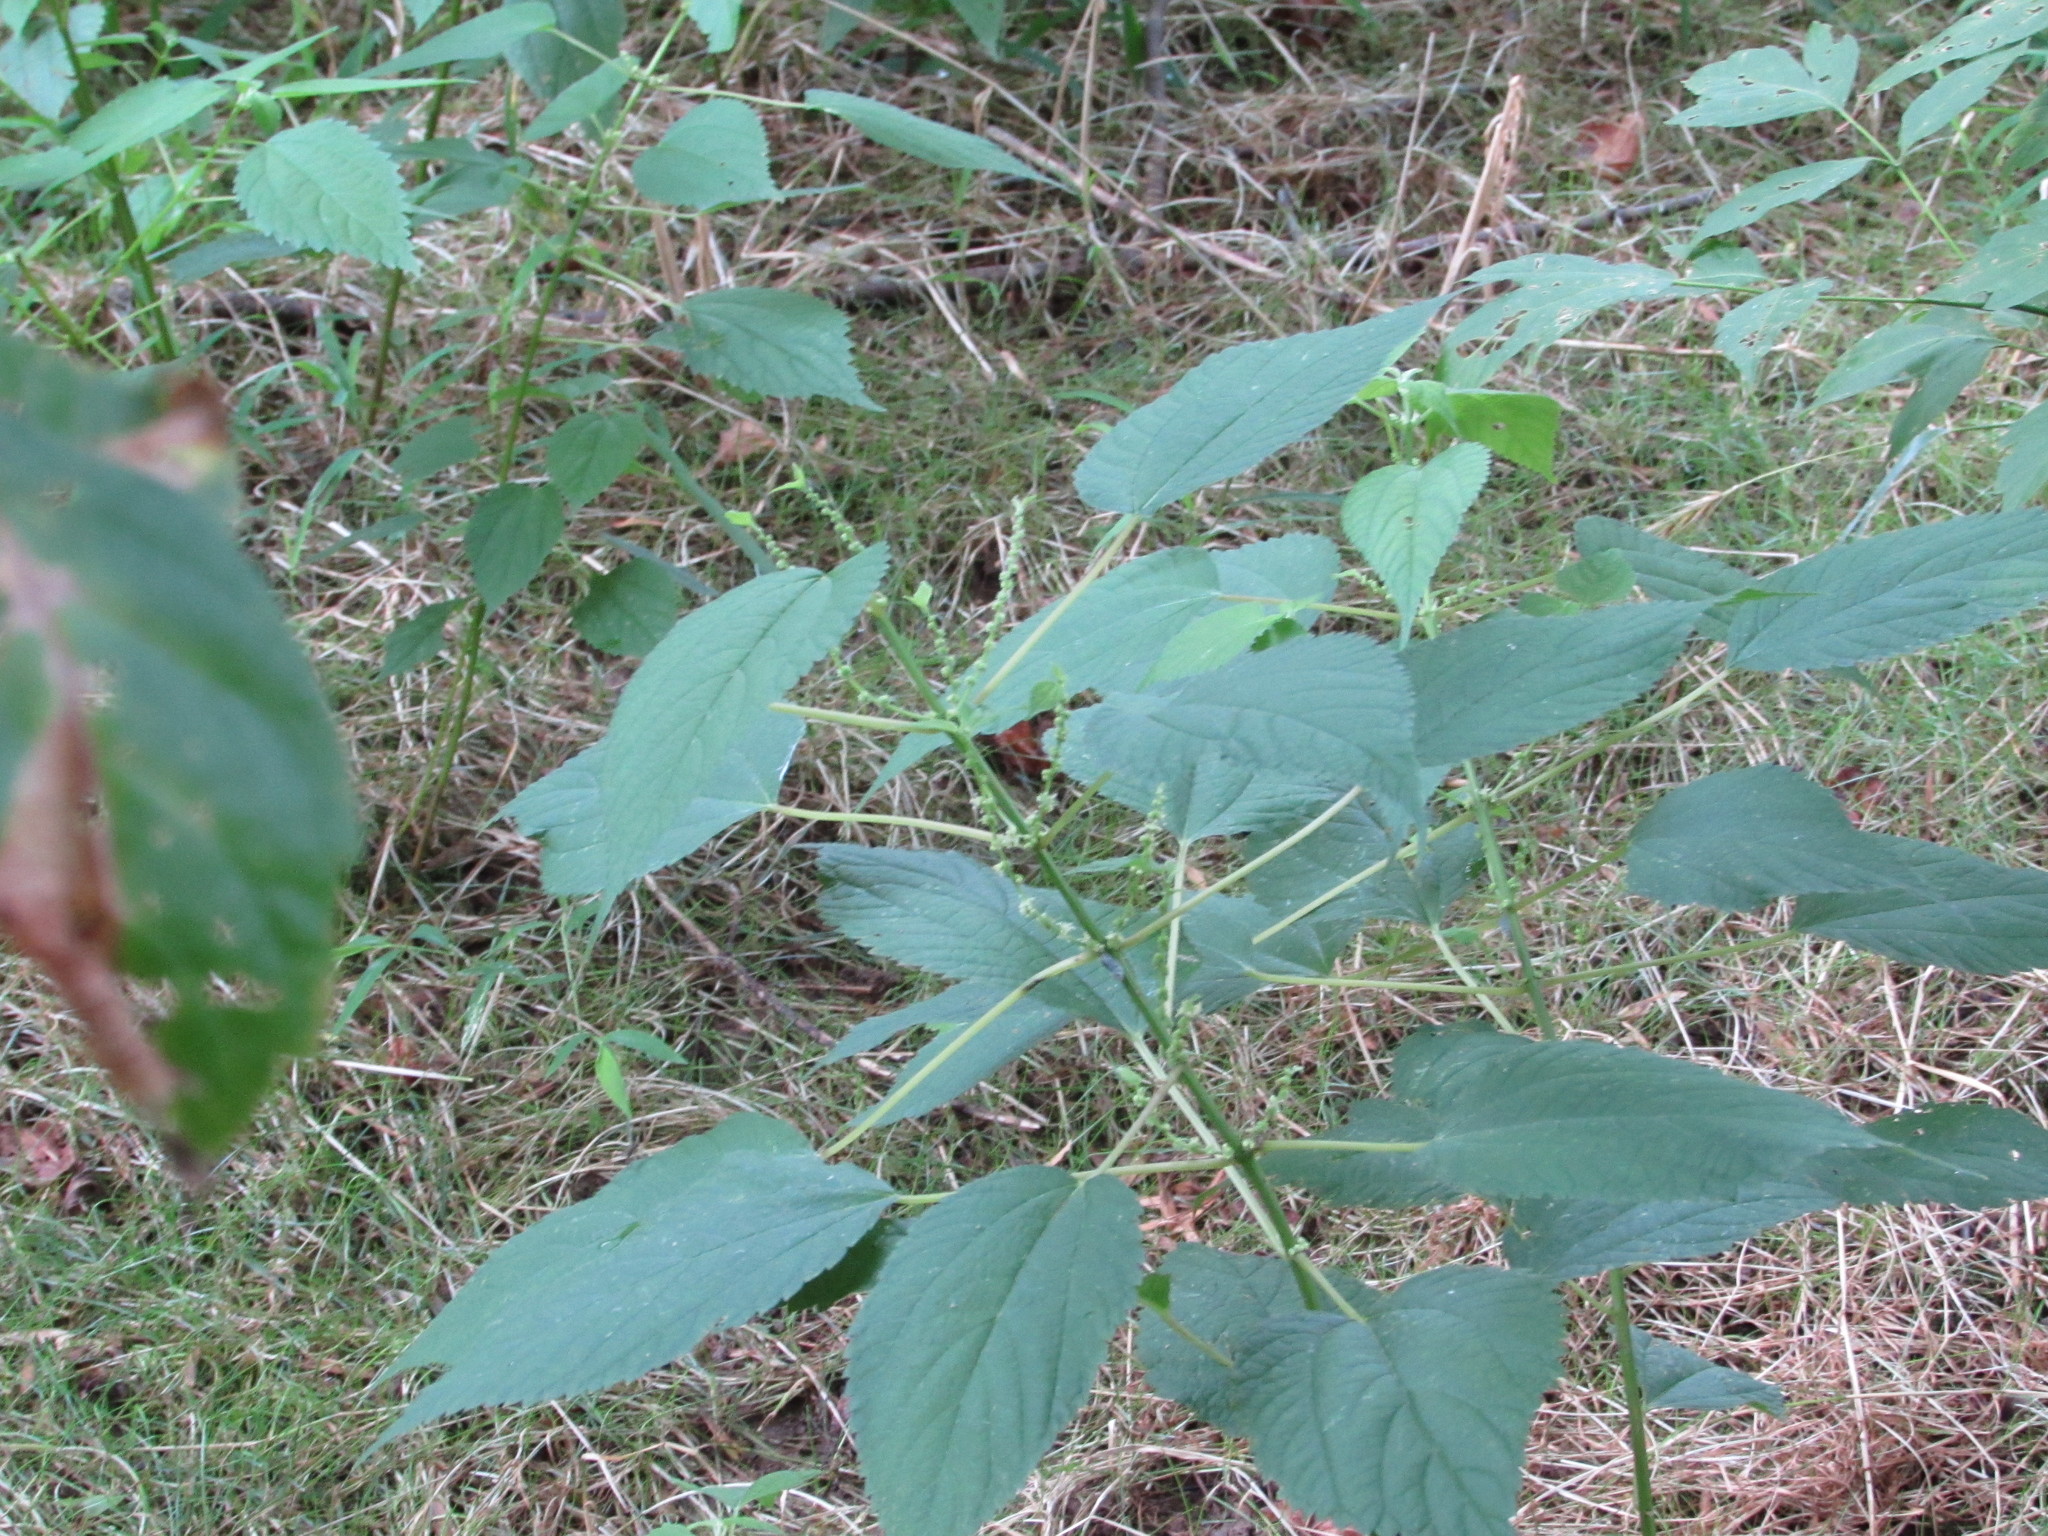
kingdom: Plantae
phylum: Tracheophyta
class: Magnoliopsida
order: Rosales
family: Urticaceae
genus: Boehmeria
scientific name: Boehmeria cylindrica
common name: Bog-hemp
